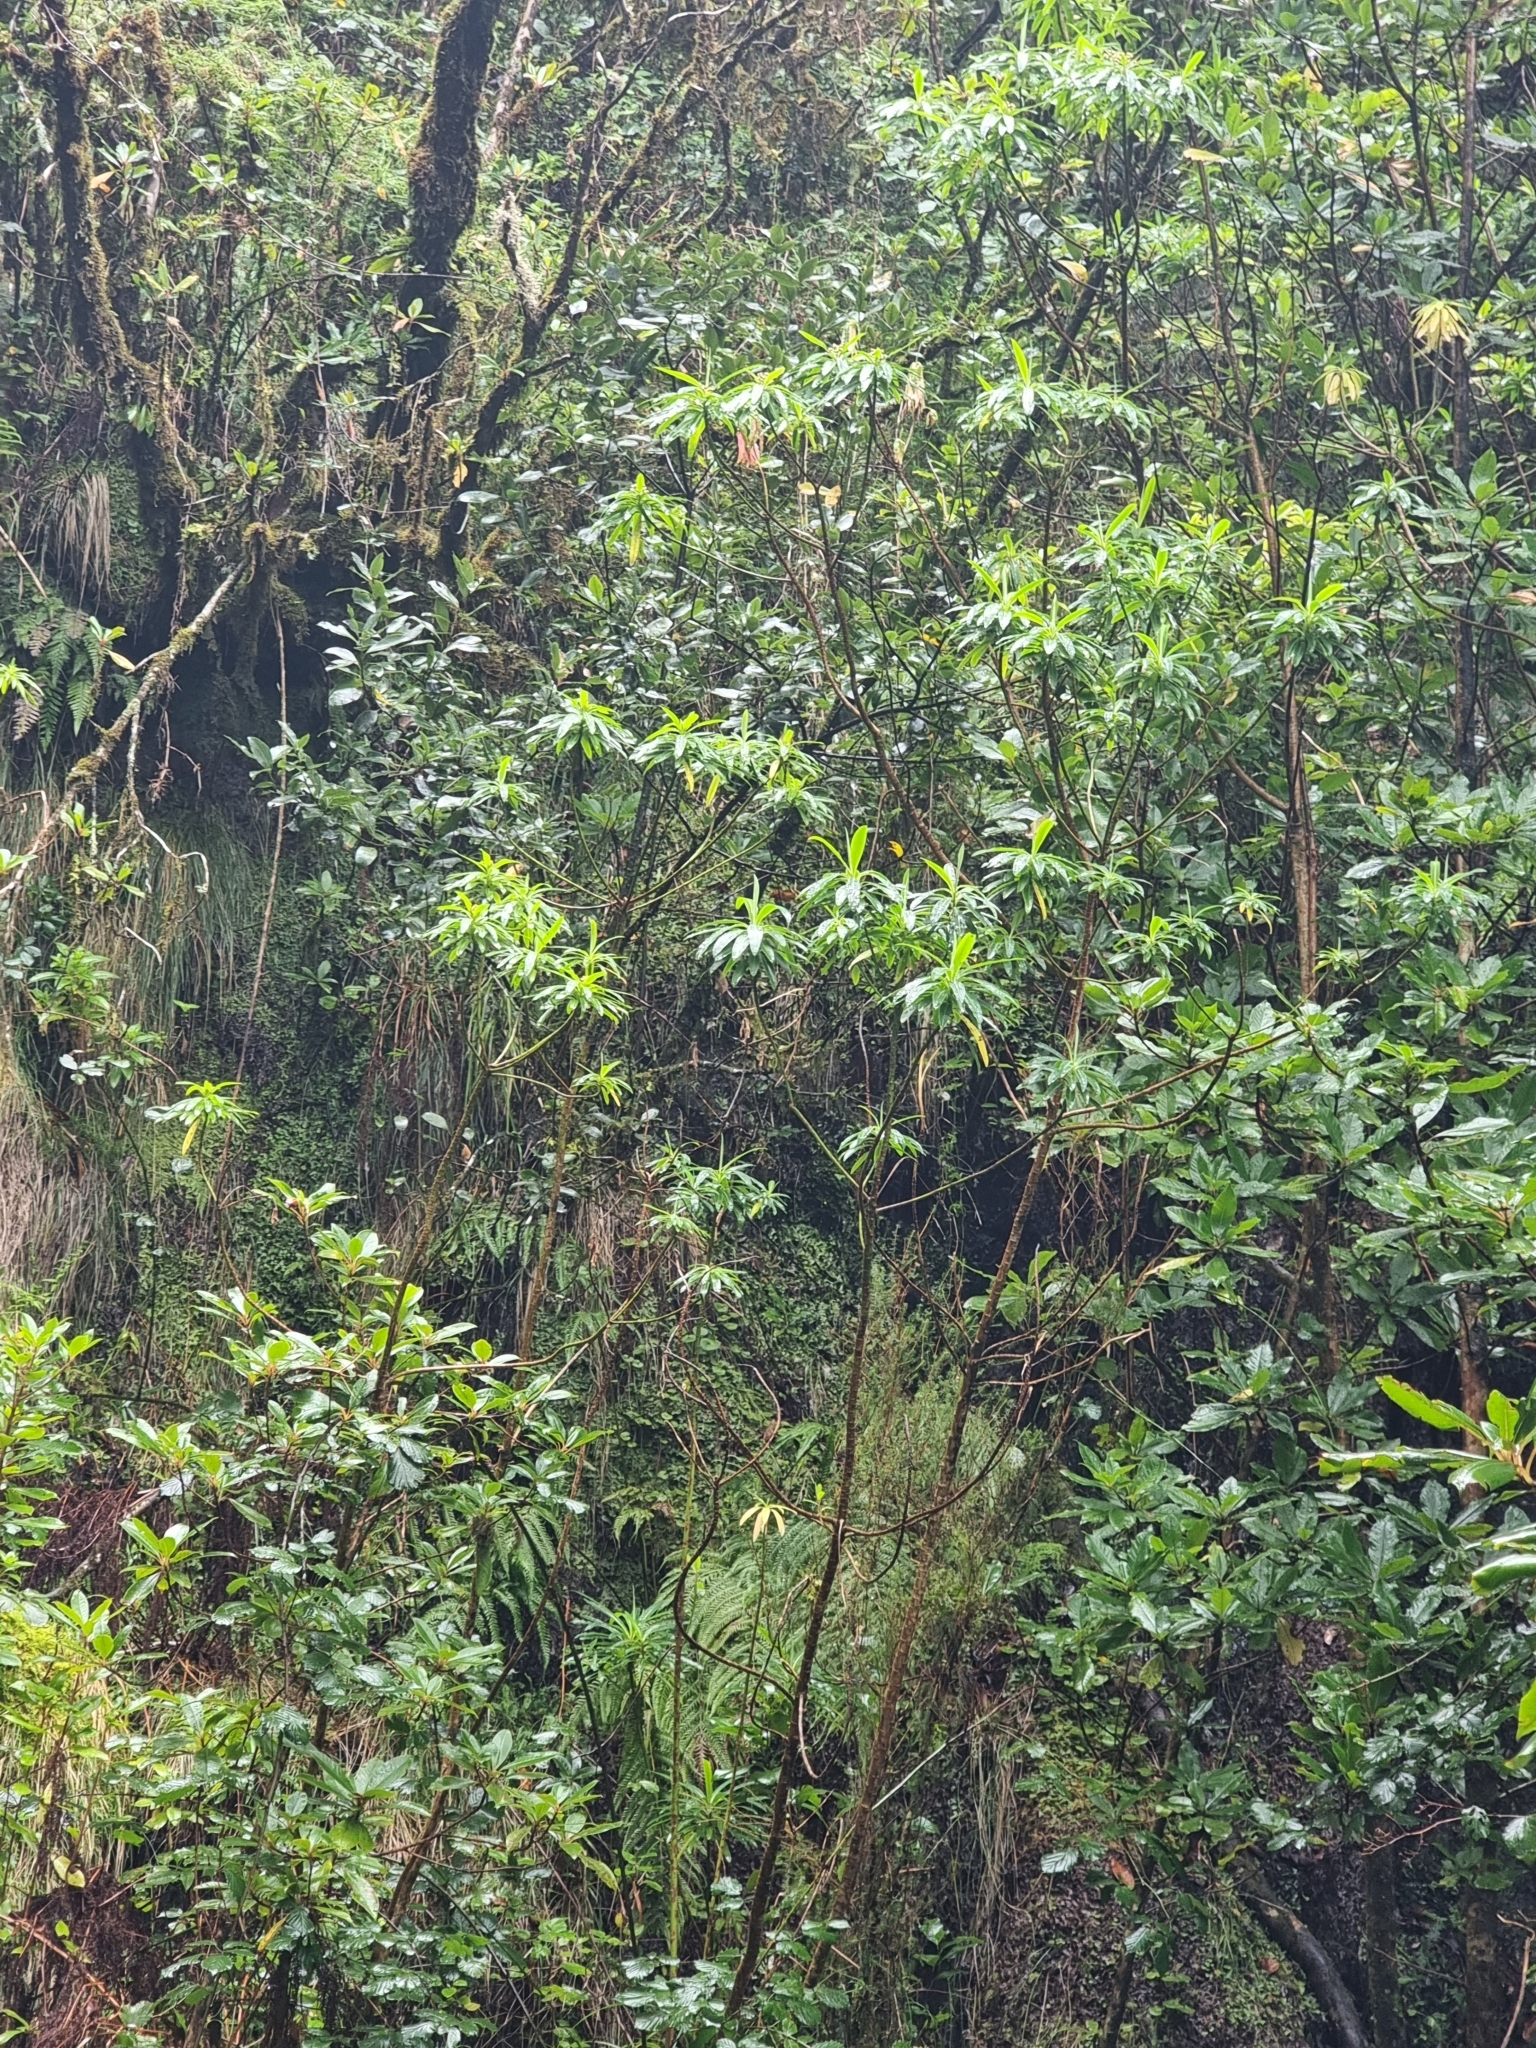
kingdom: Plantae
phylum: Tracheophyta
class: Magnoliopsida
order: Malpighiales
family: Euphorbiaceae
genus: Euphorbia
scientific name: Euphorbia mellifera
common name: Canary spurge
